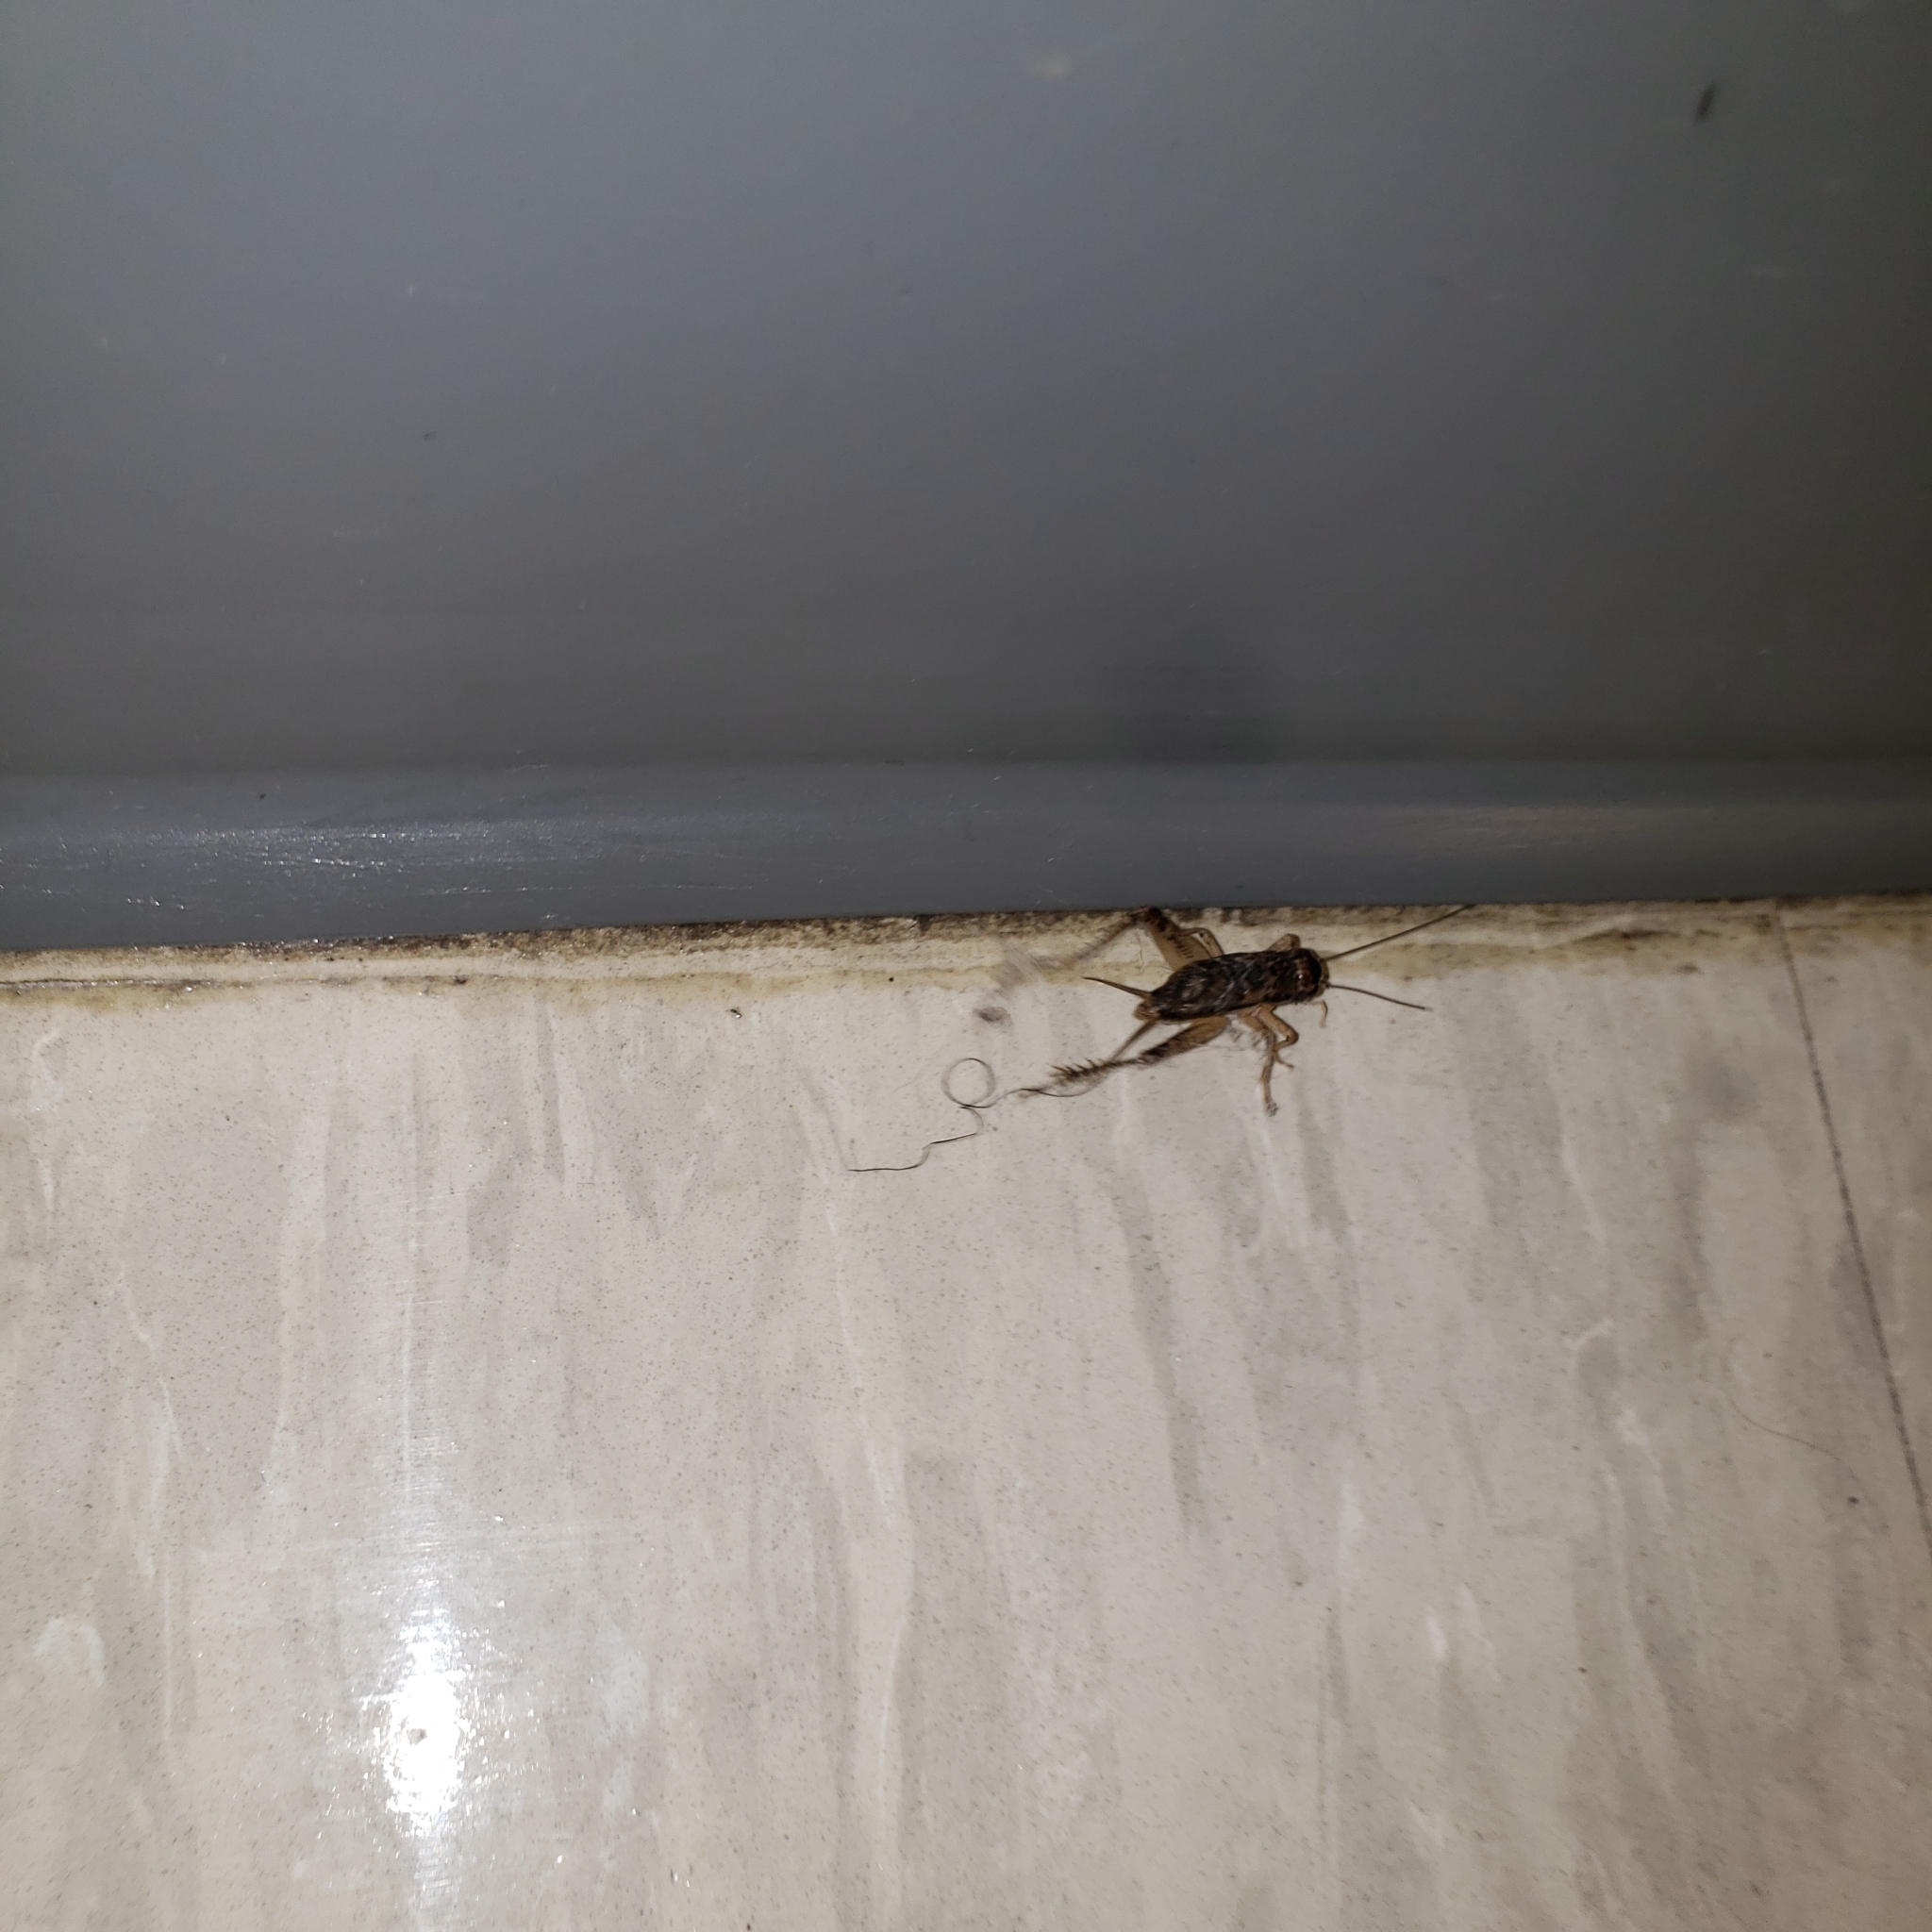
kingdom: Animalia
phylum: Arthropoda
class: Insecta
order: Orthoptera
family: Gryllidae
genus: Velarifictorus
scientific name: Velarifictorus micado
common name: Japanese burrowing cricket
